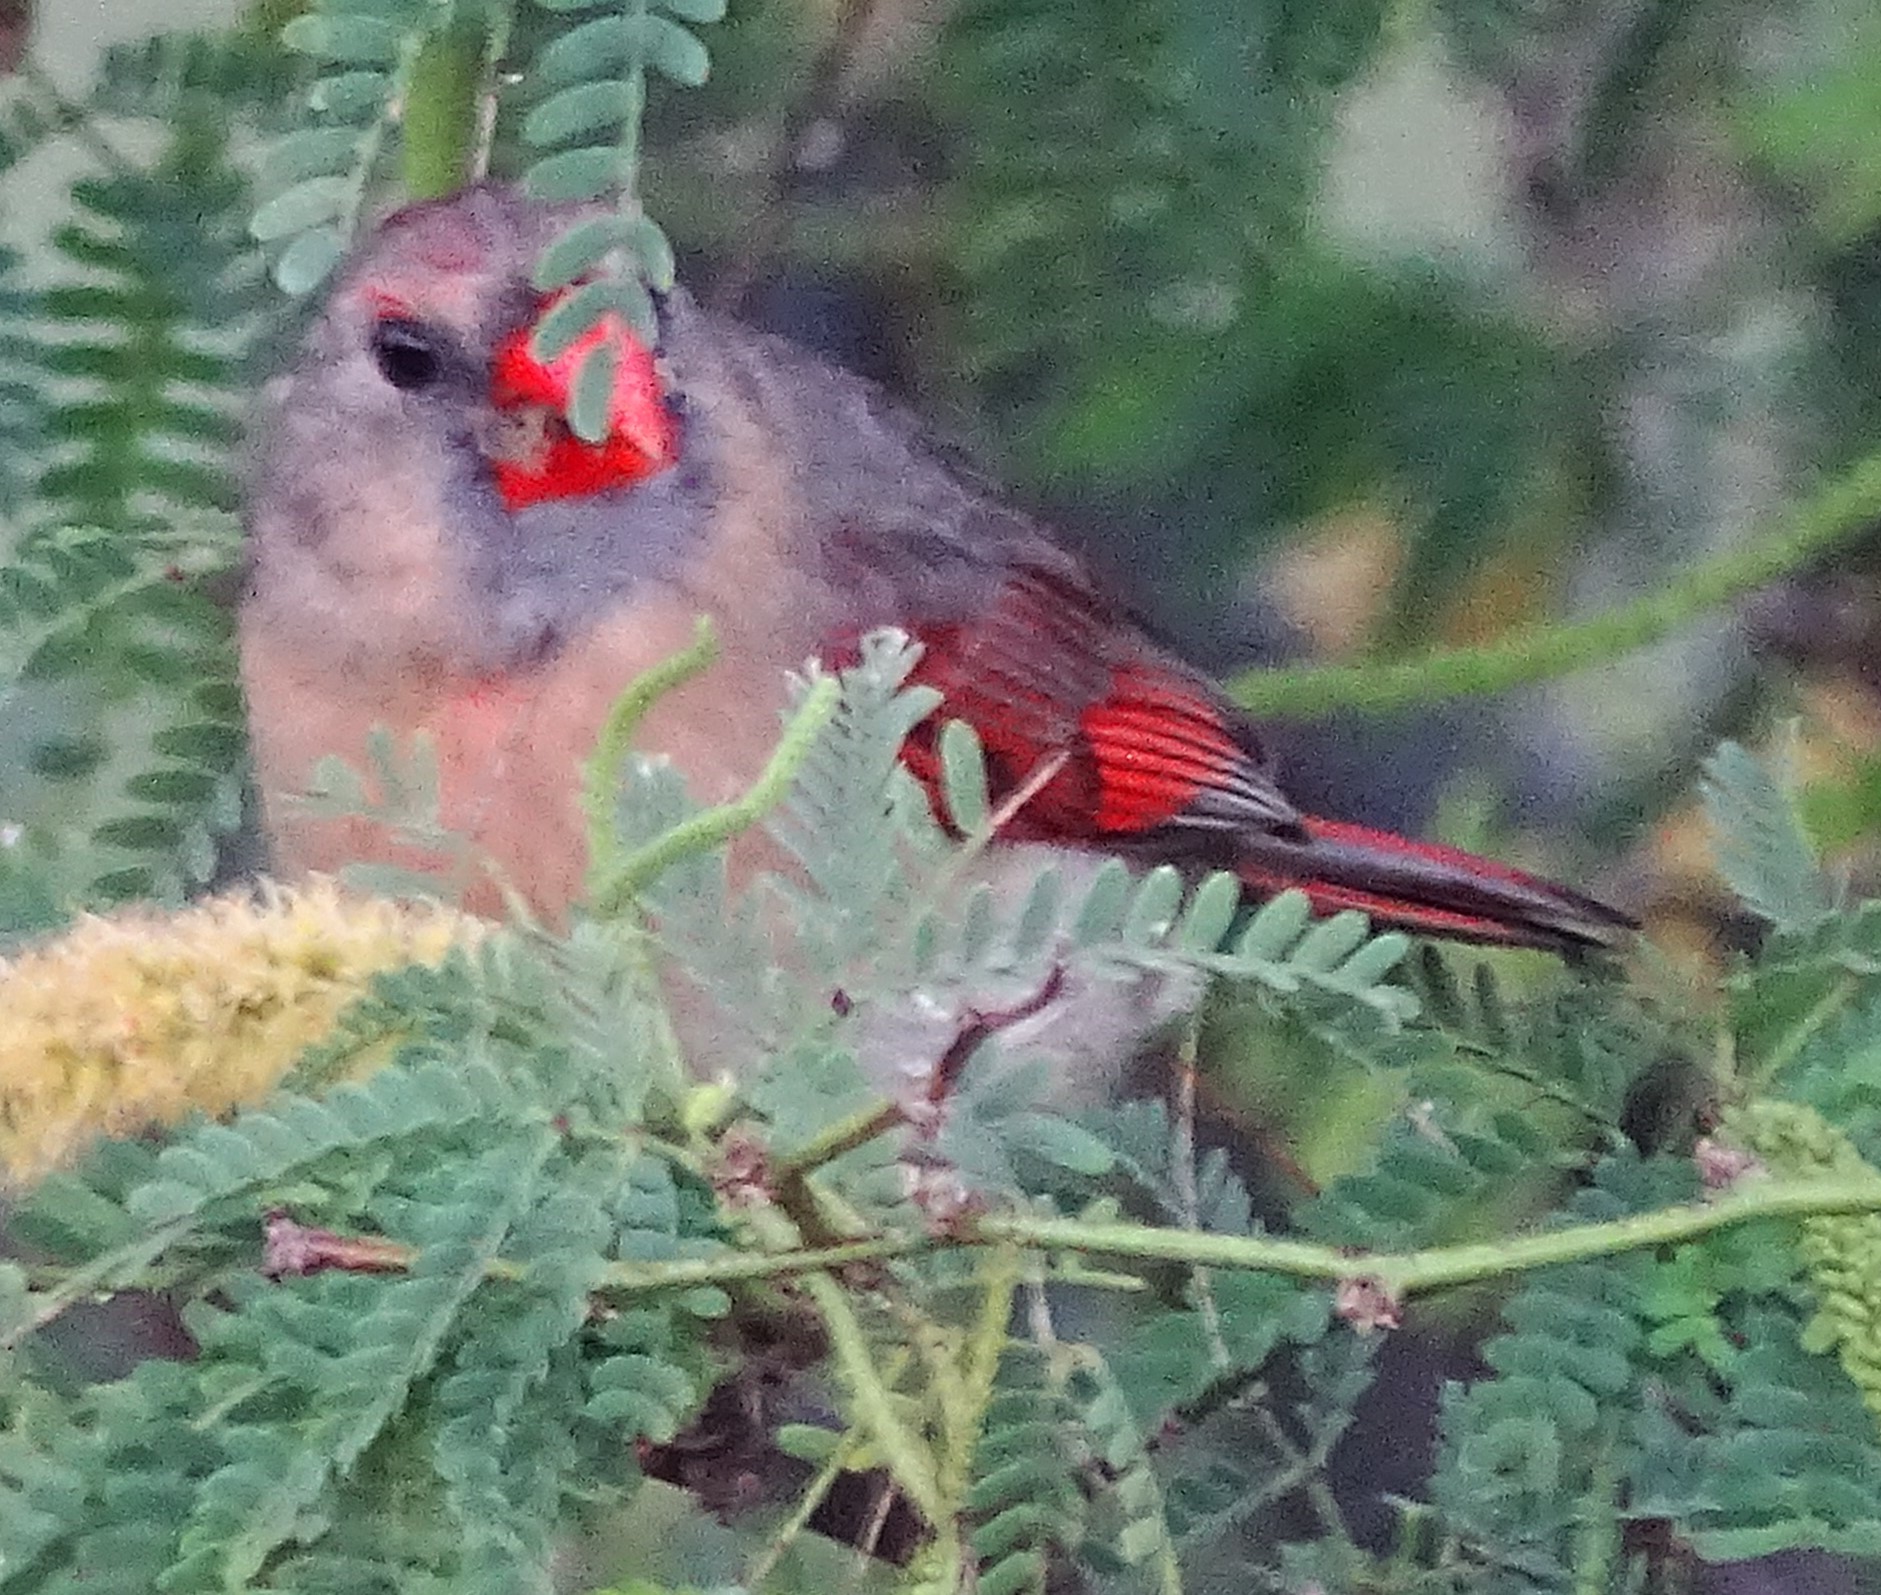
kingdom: Animalia
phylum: Chordata
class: Aves
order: Passeriformes
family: Cardinalidae
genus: Cardinalis
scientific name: Cardinalis cardinalis
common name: Northern cardinal
